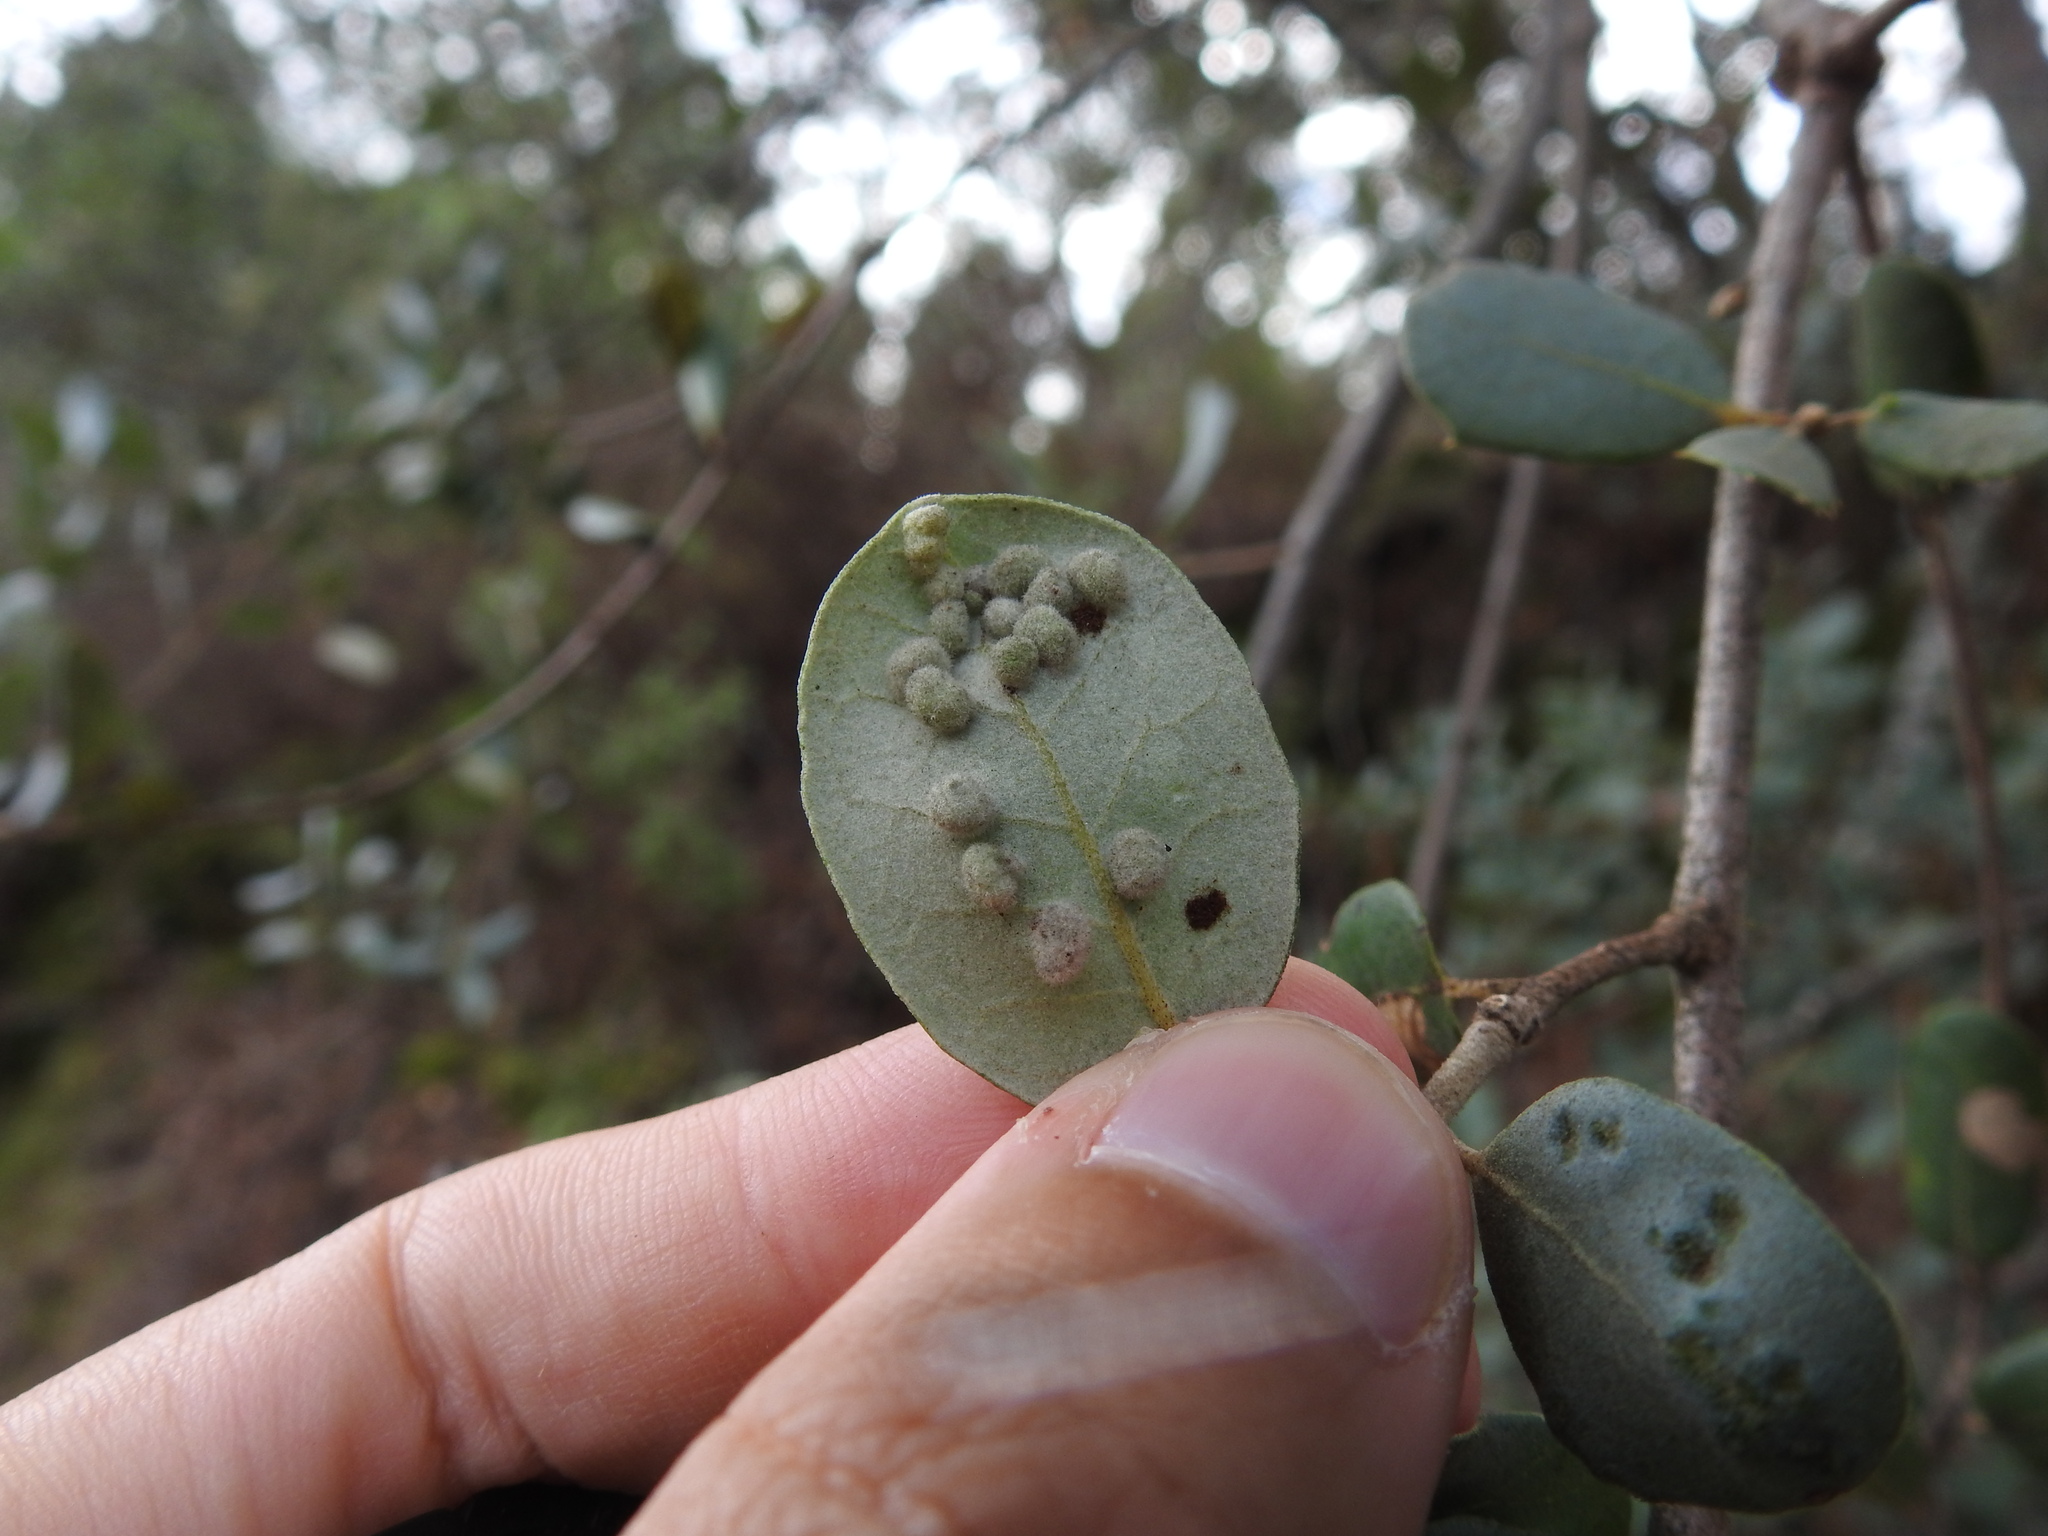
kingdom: Animalia
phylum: Arthropoda
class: Insecta
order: Diptera
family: Cecidomyiidae
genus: Dryomyia
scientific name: Dryomyia lichtensteinii
